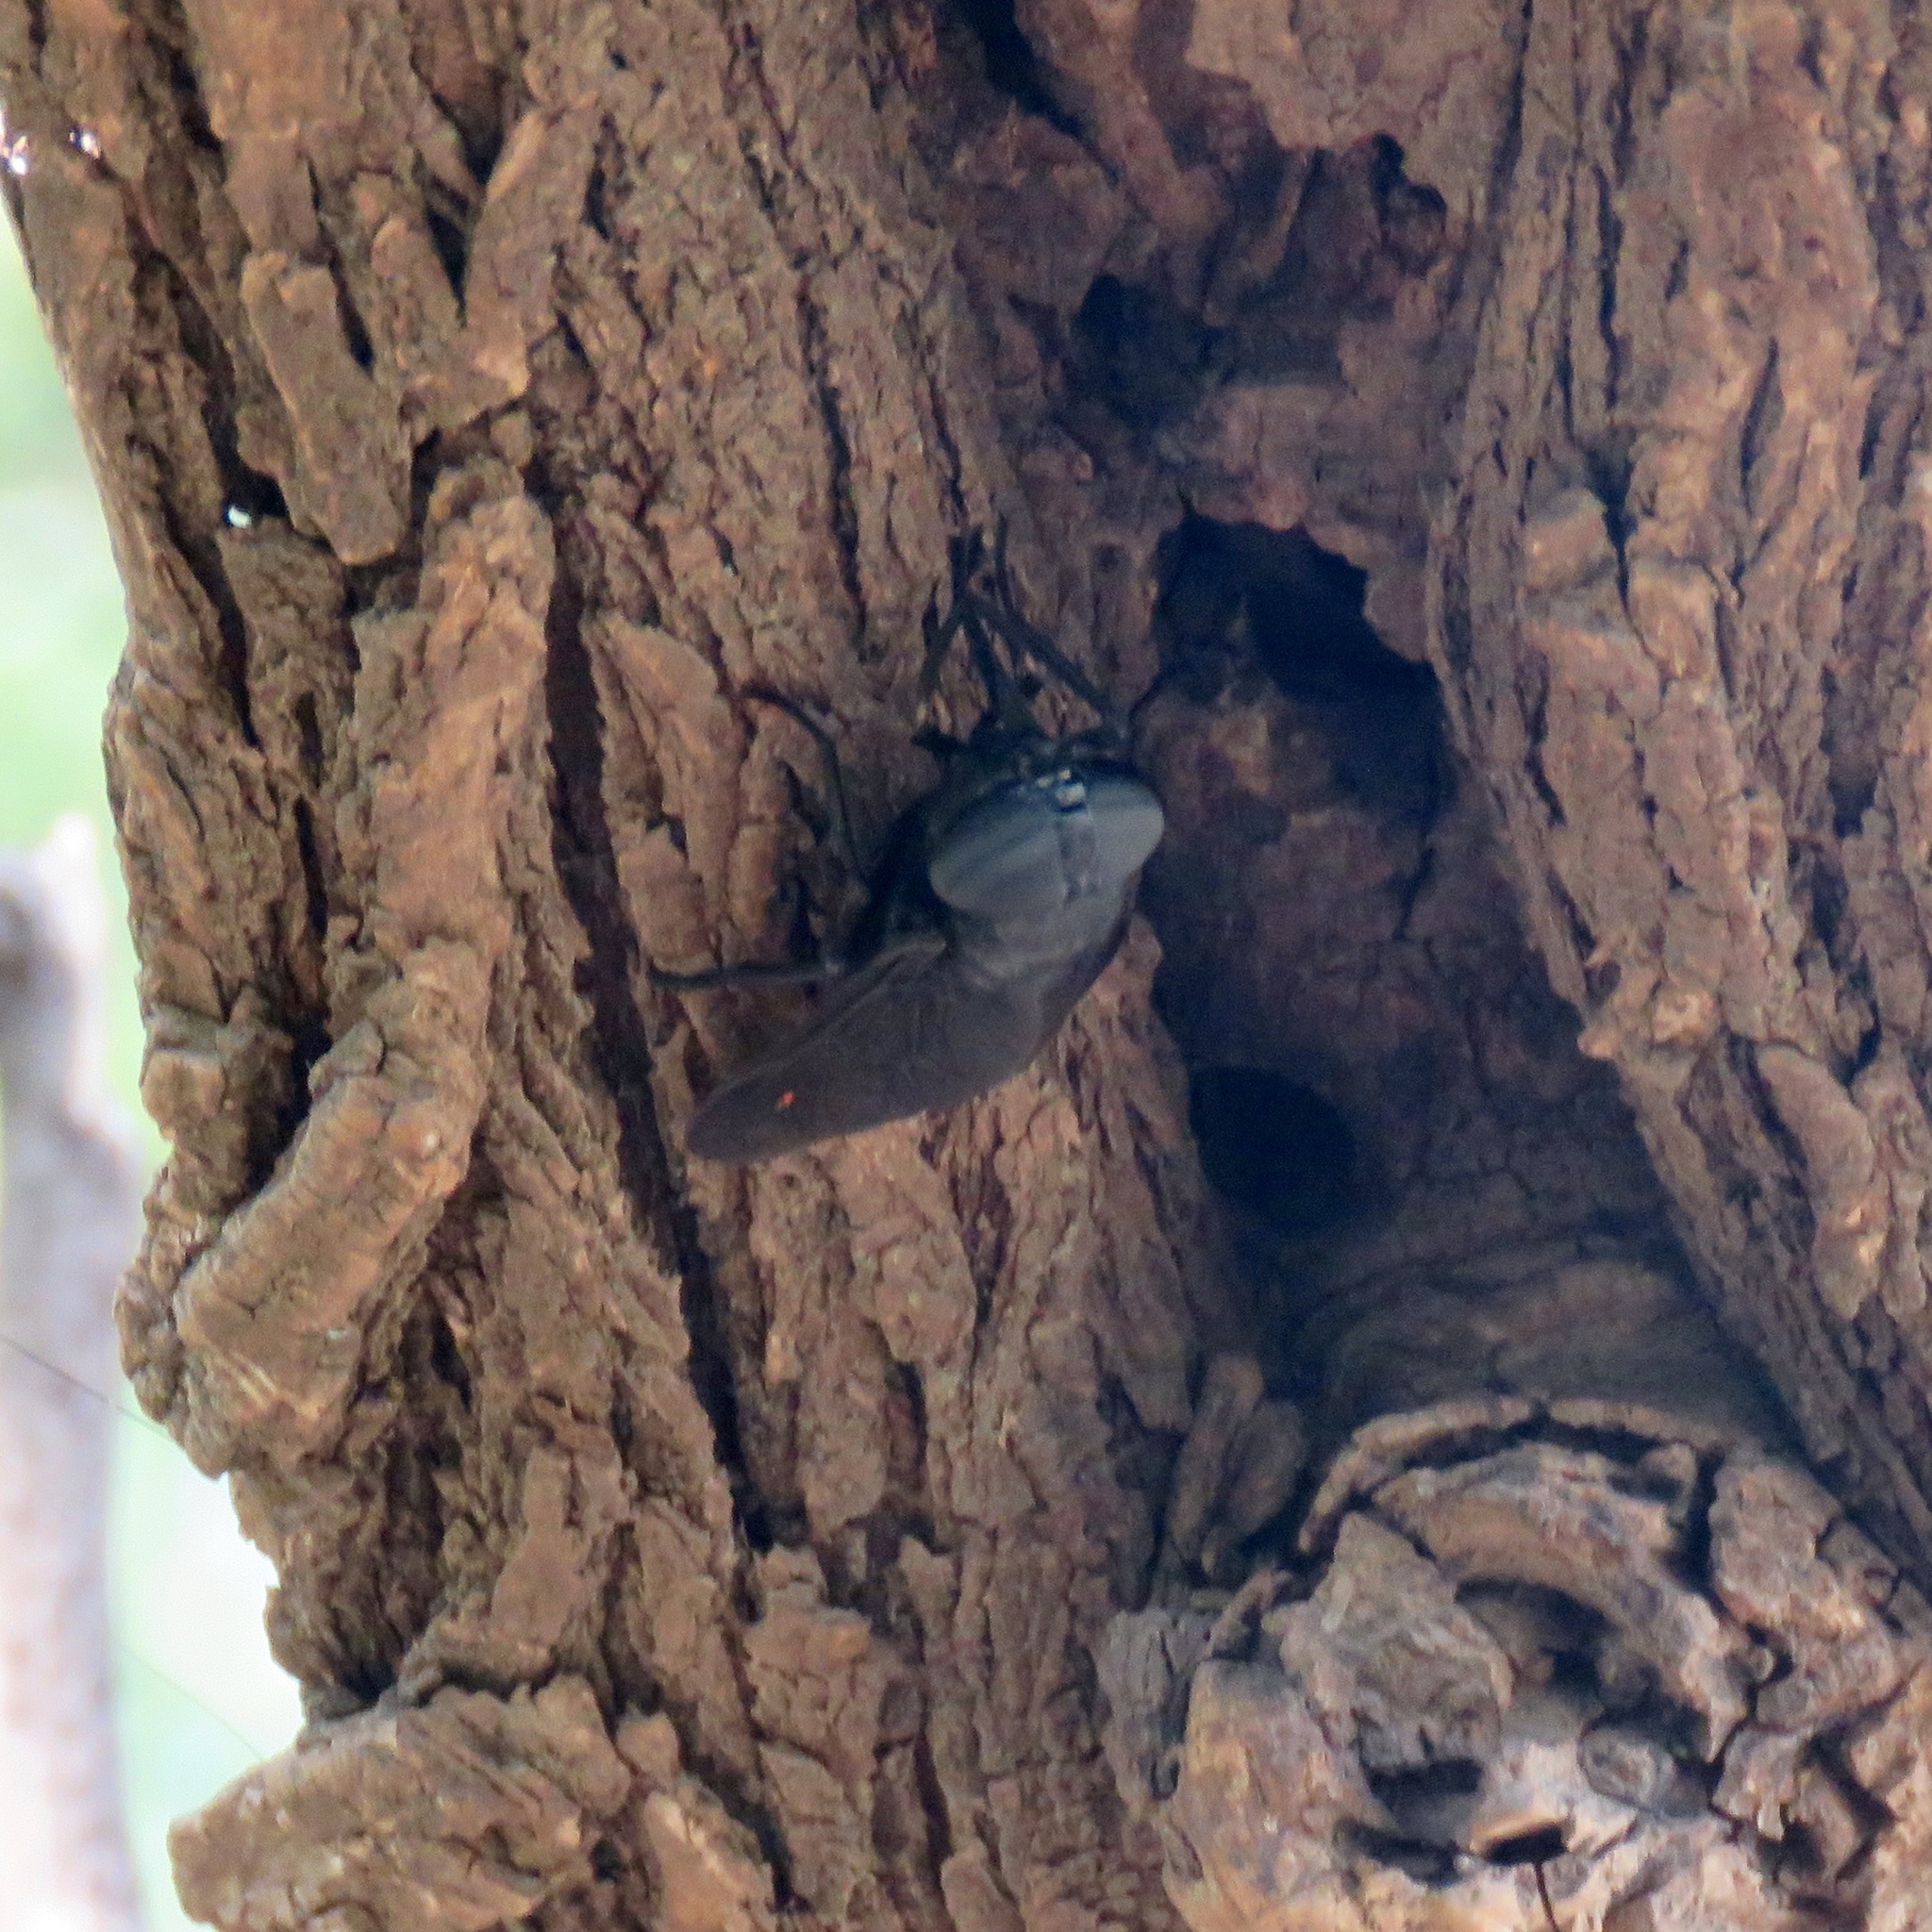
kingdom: Animalia
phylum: Arthropoda
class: Insecta
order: Diptera
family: Tabanidae
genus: Tabanus
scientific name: Tabanus atratus
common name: Black horse fly
